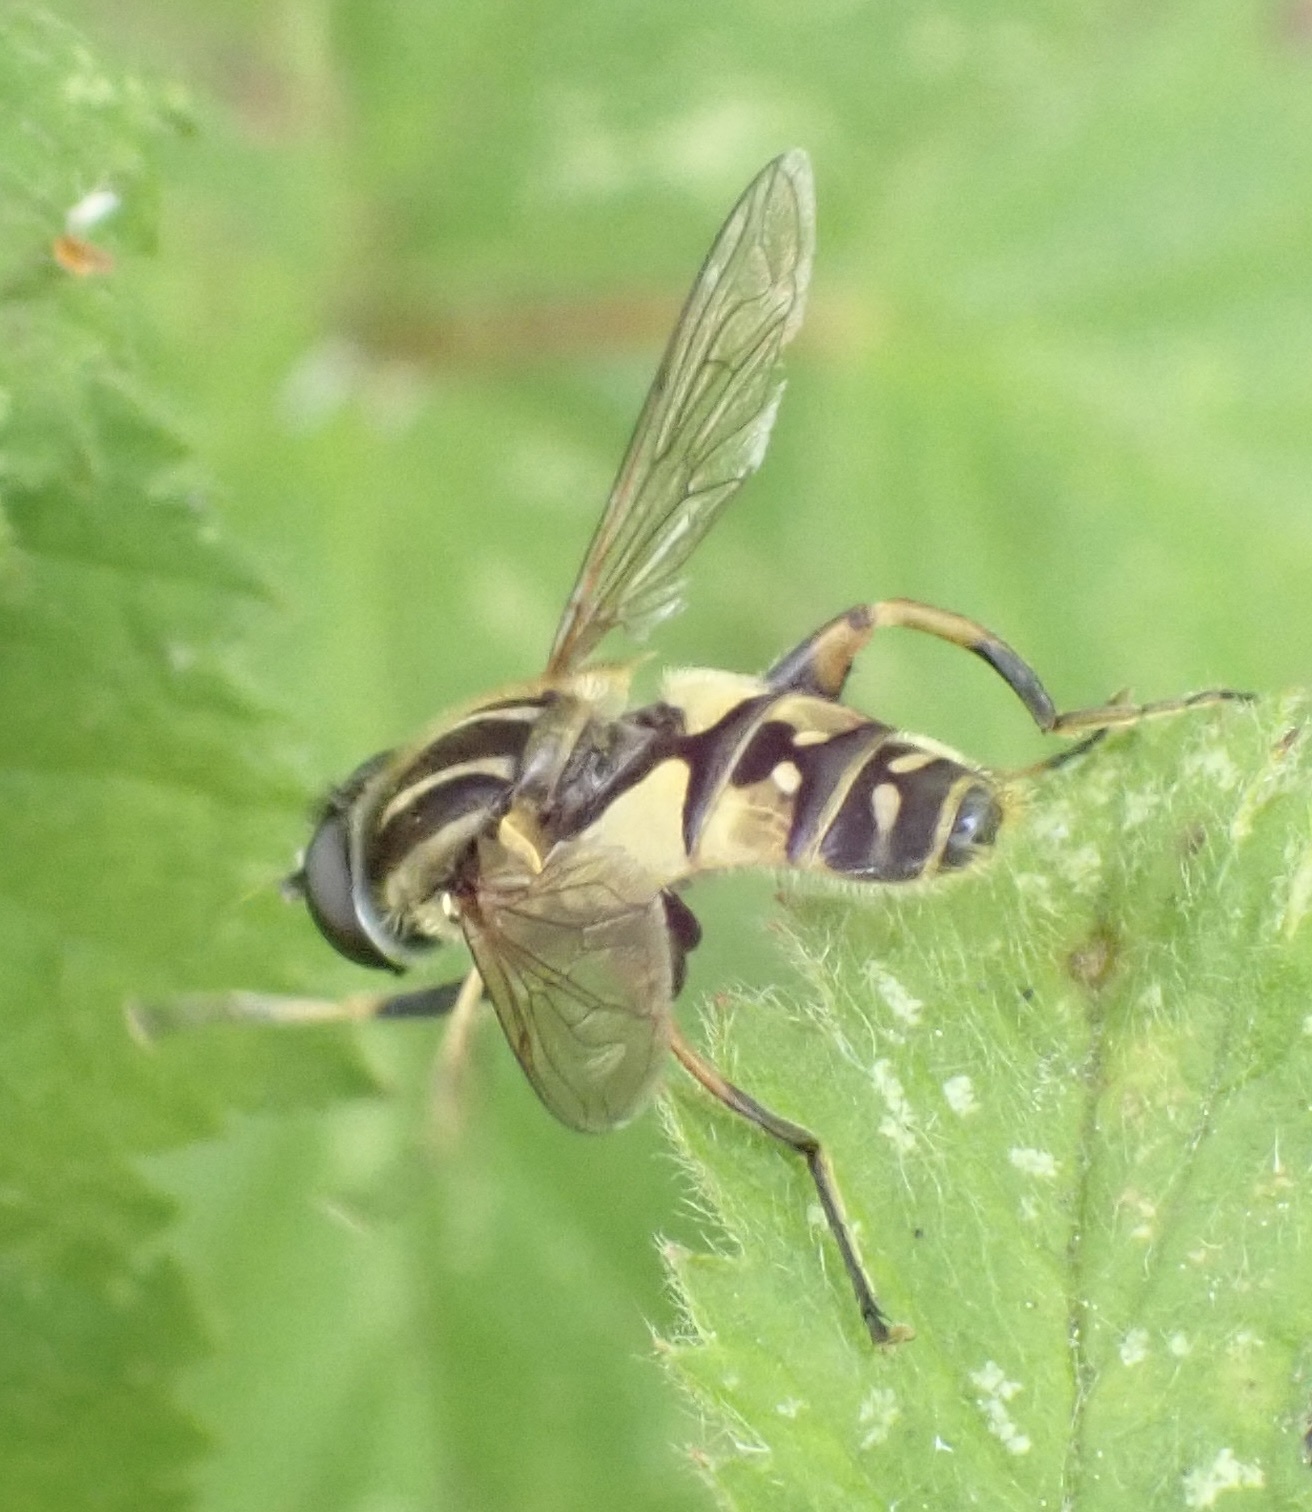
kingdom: Animalia
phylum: Arthropoda
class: Insecta
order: Diptera
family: Syrphidae
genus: Helophilus
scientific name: Helophilus pendulus
